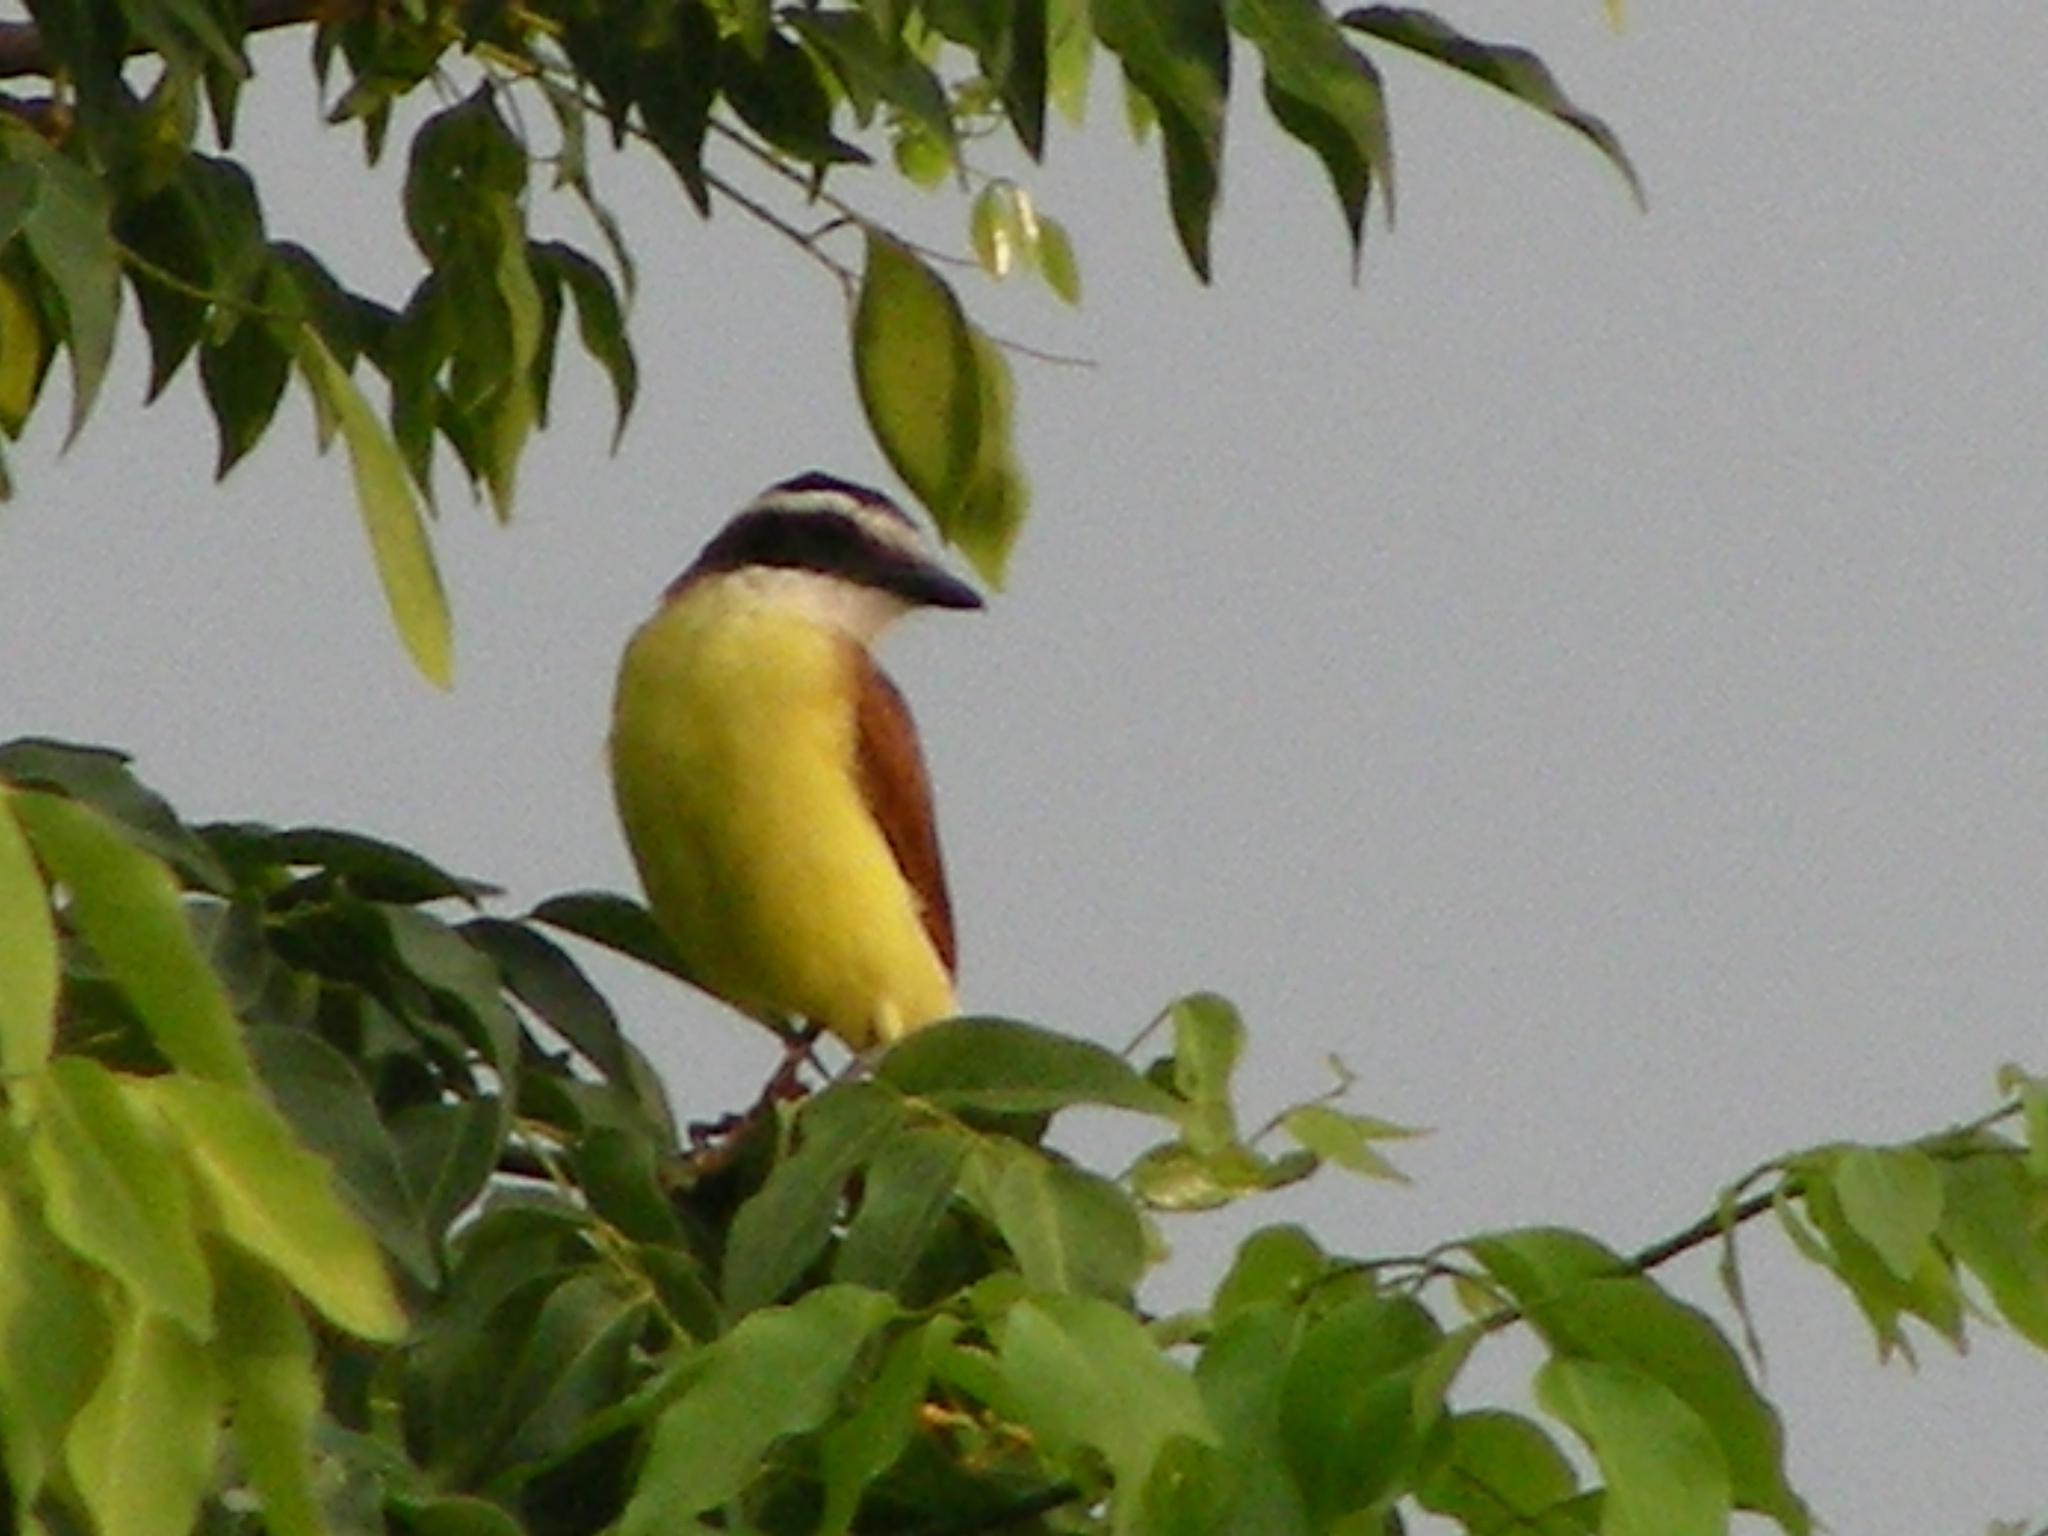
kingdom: Animalia
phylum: Chordata
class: Aves
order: Passeriformes
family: Tyrannidae
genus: Pitangus
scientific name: Pitangus sulphuratus
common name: Great kiskadee
